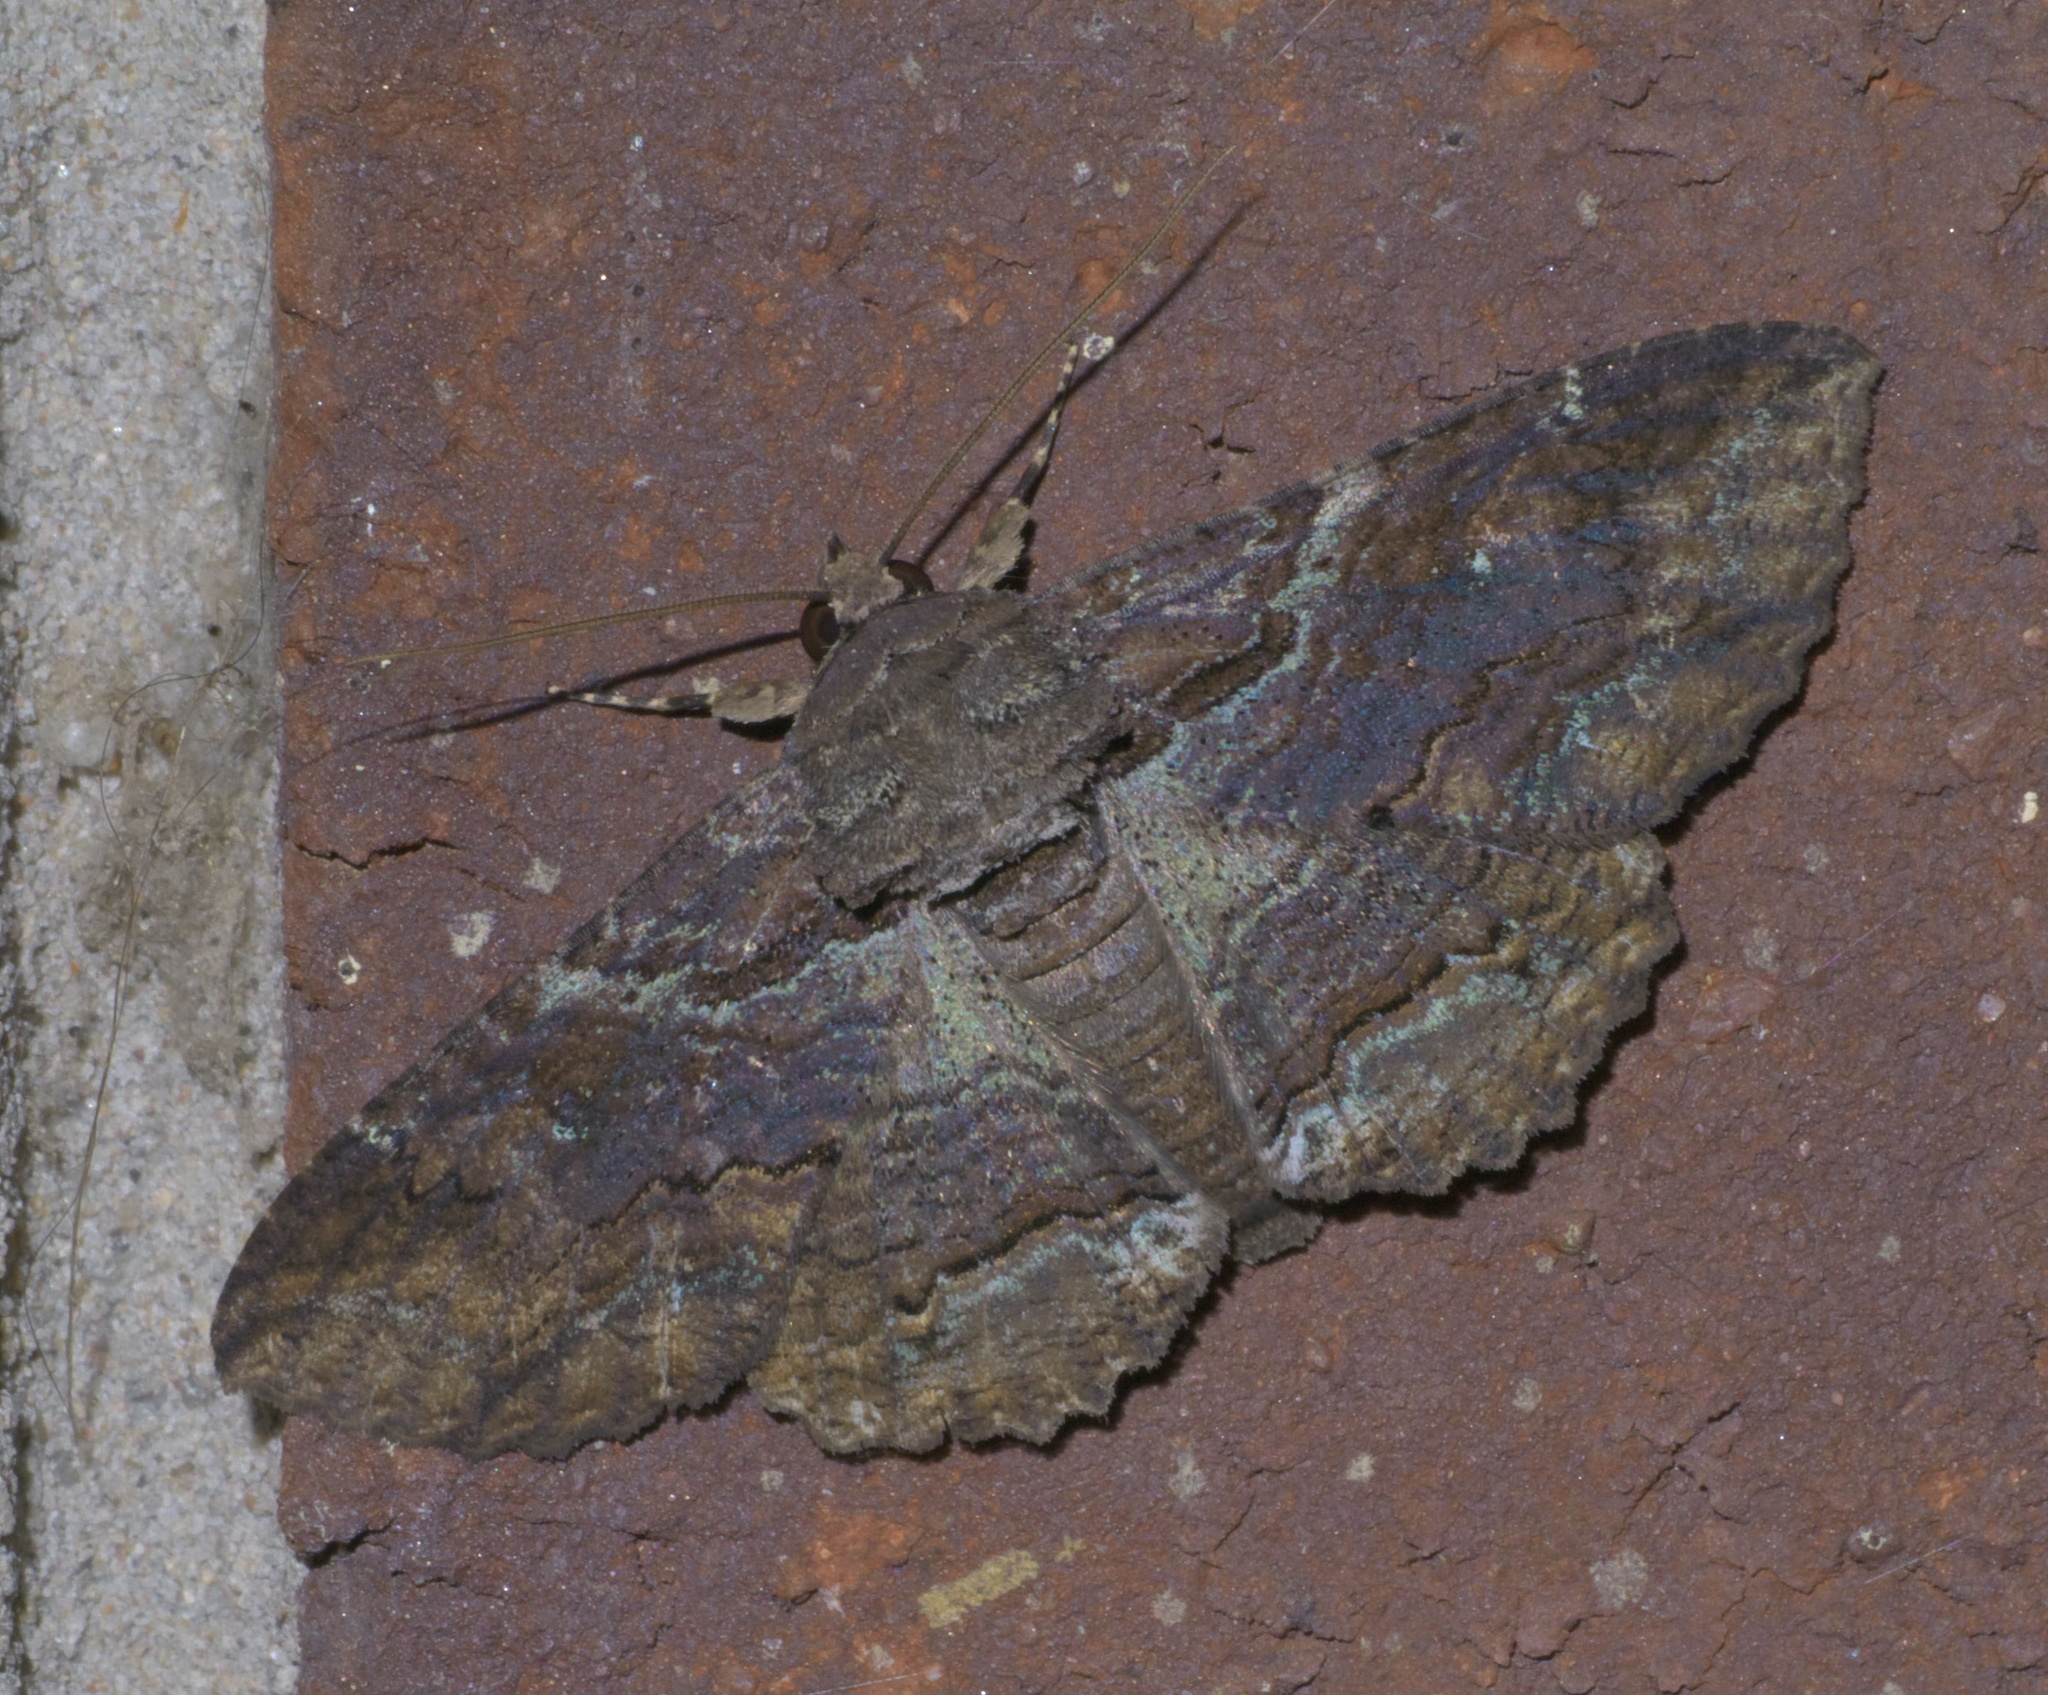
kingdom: Animalia
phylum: Arthropoda
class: Insecta
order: Lepidoptera
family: Erebidae
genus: Zale
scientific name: Zale lunata
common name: Lunate zale moth
